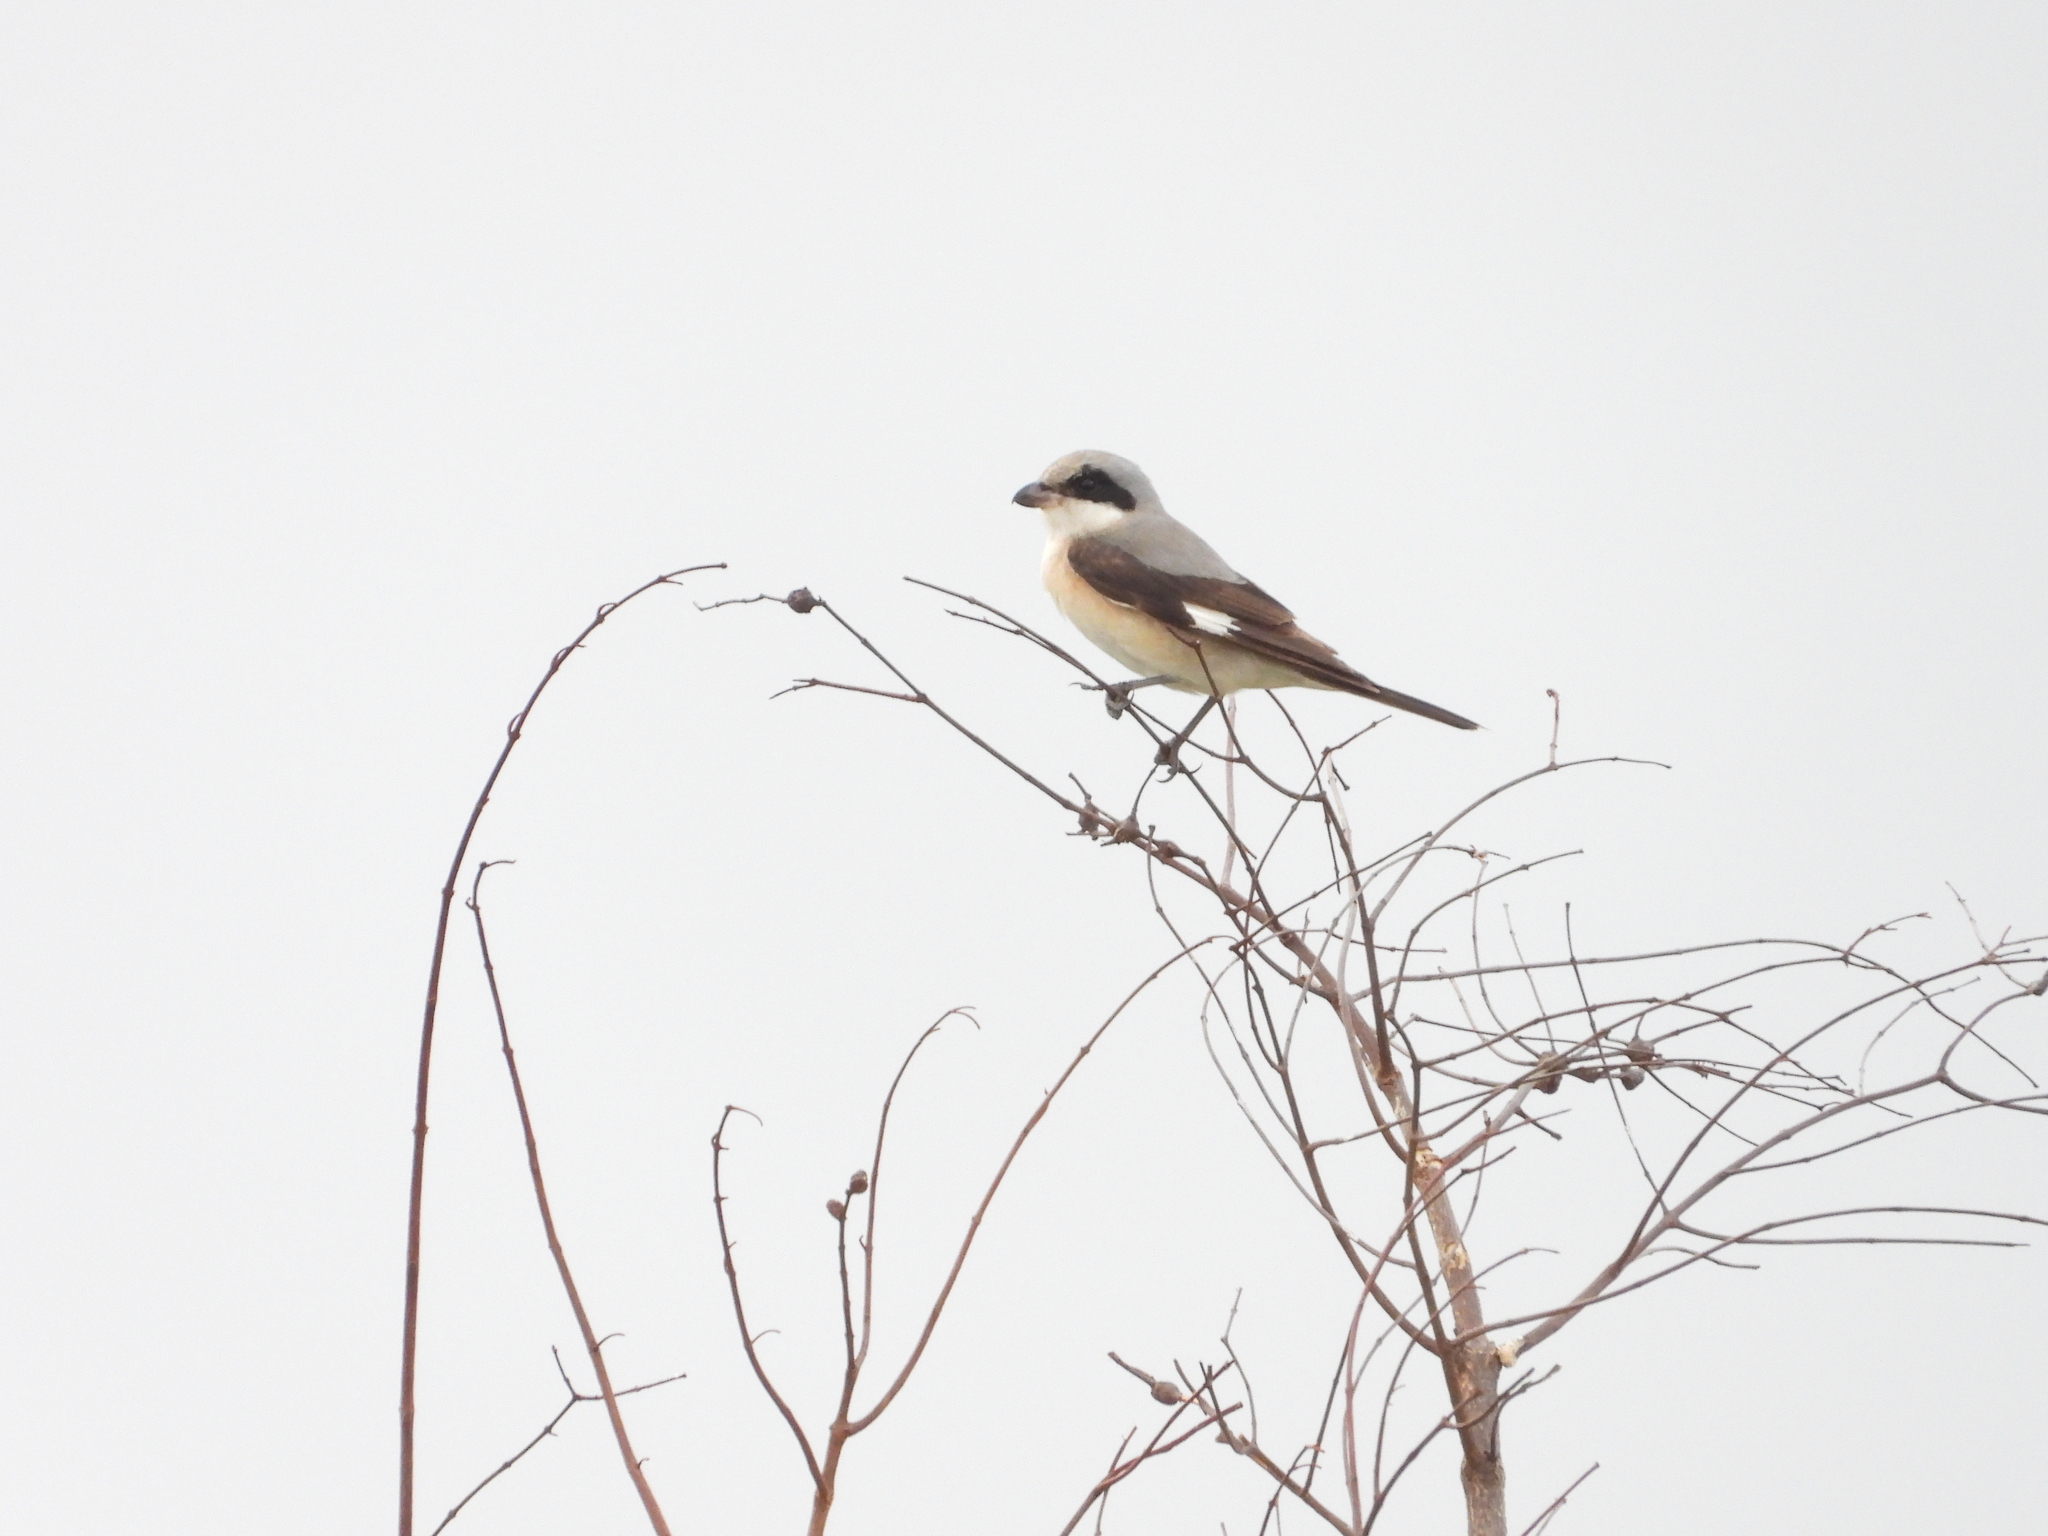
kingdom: Animalia
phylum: Chordata
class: Aves
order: Passeriformes
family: Laniidae
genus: Lanius
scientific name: Lanius minor
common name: Lesser grey shrike
